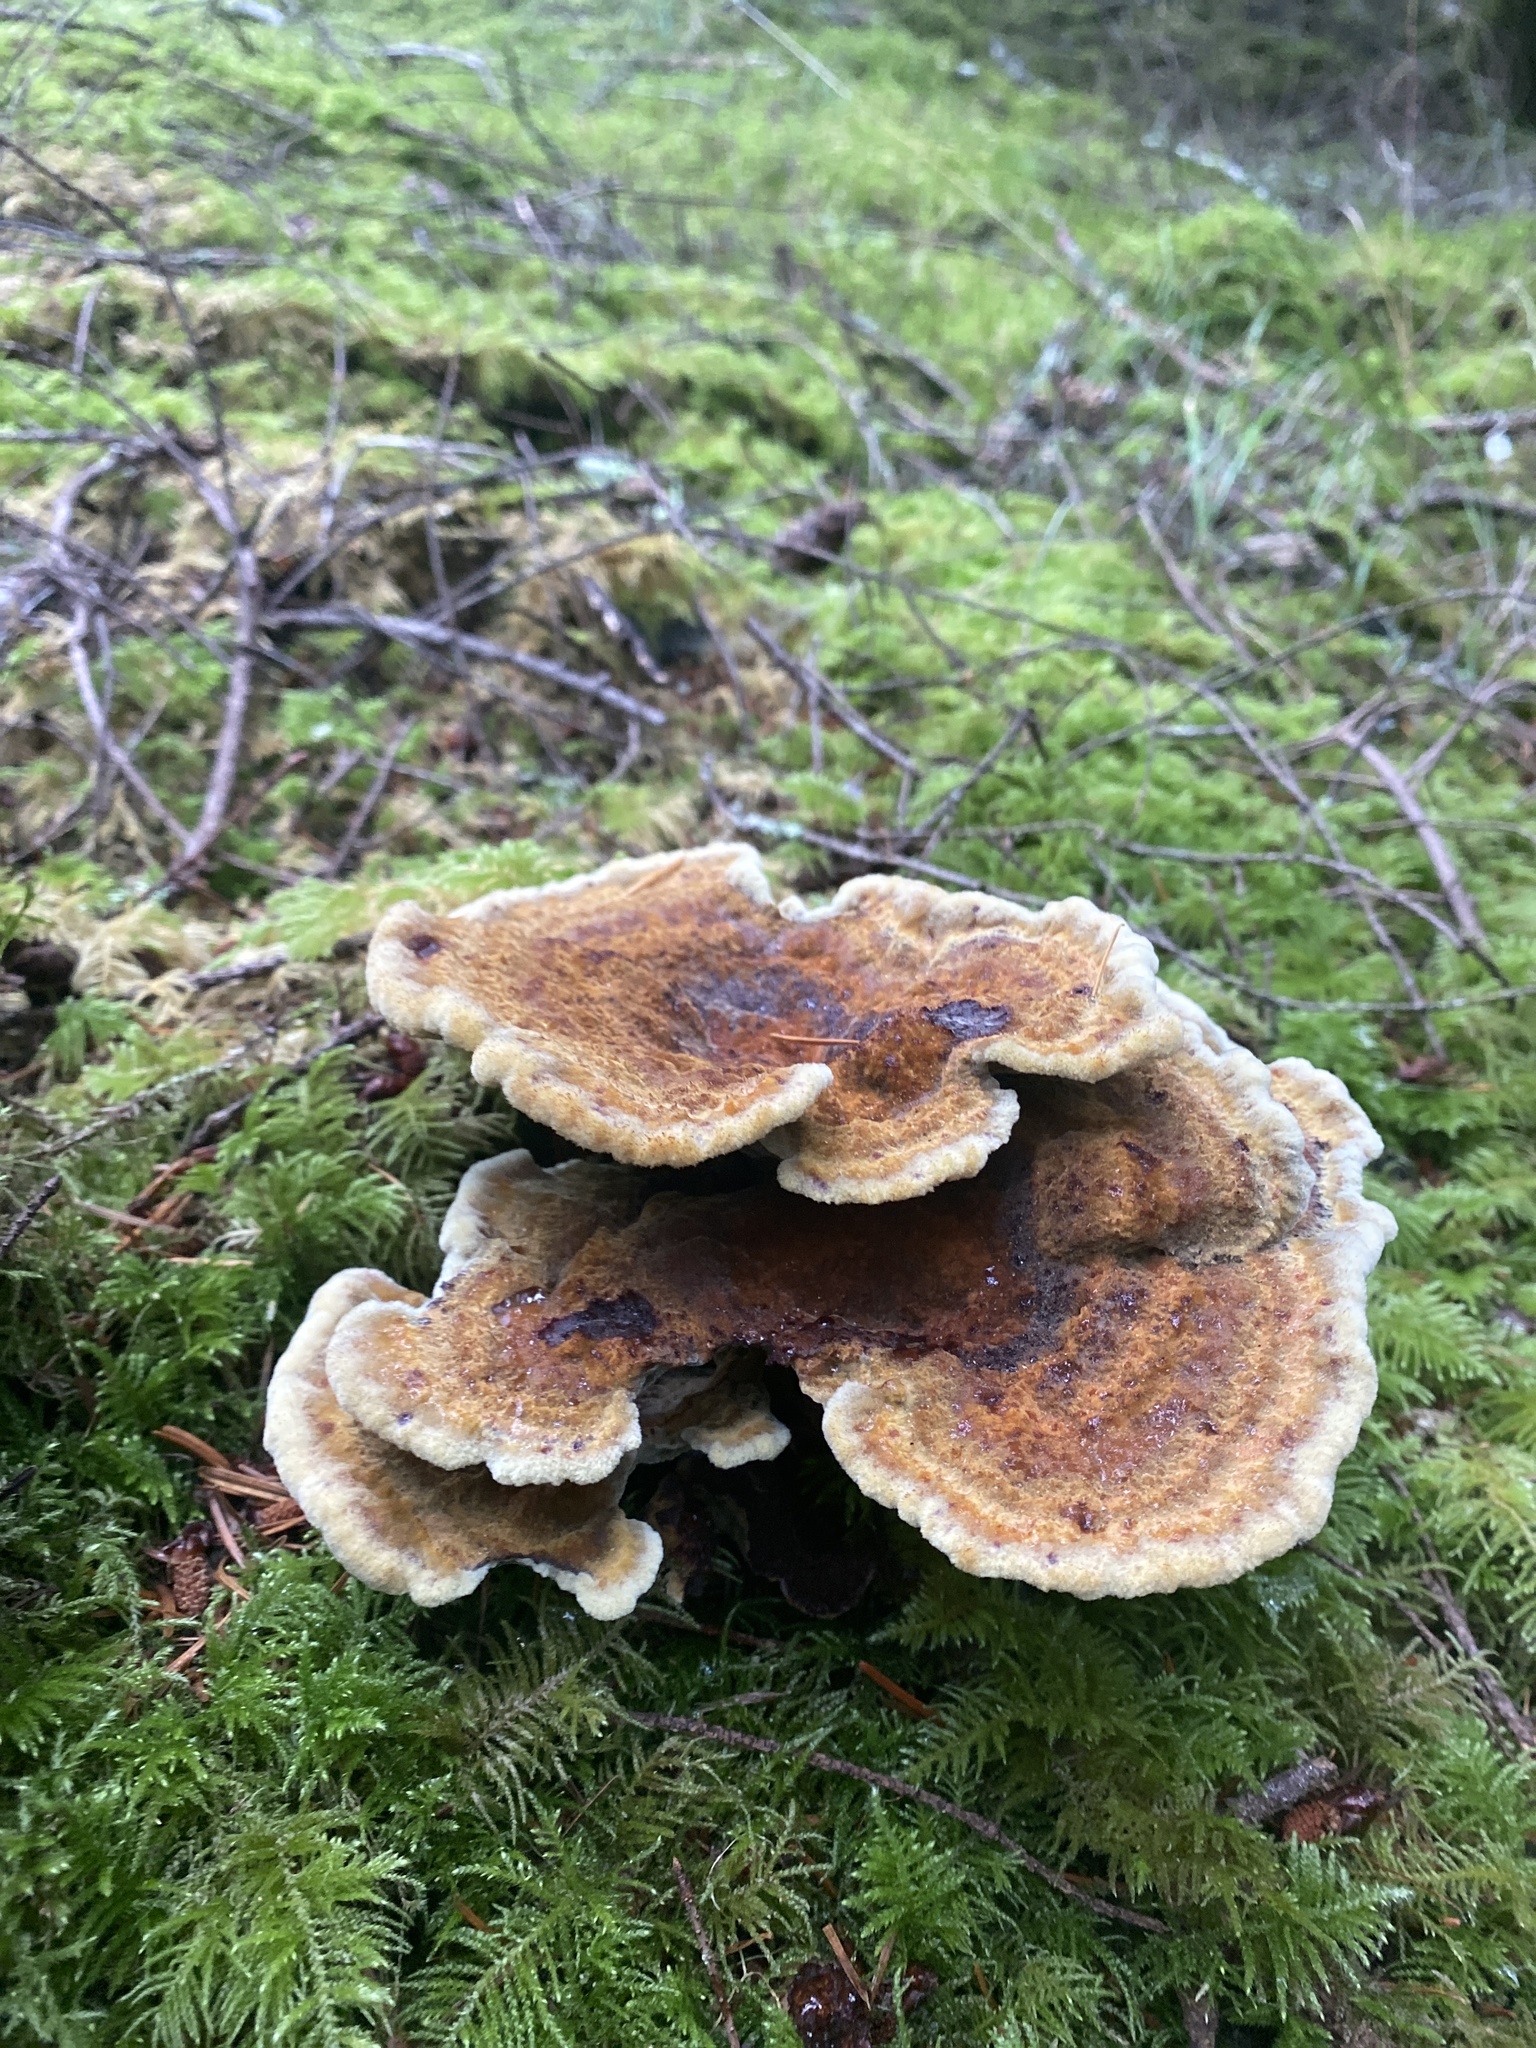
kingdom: Fungi
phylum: Basidiomycota
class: Agaricomycetes
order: Polyporales
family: Laetiporaceae
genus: Phaeolus
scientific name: Phaeolus schweinitzii
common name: Dyer's mazegill
